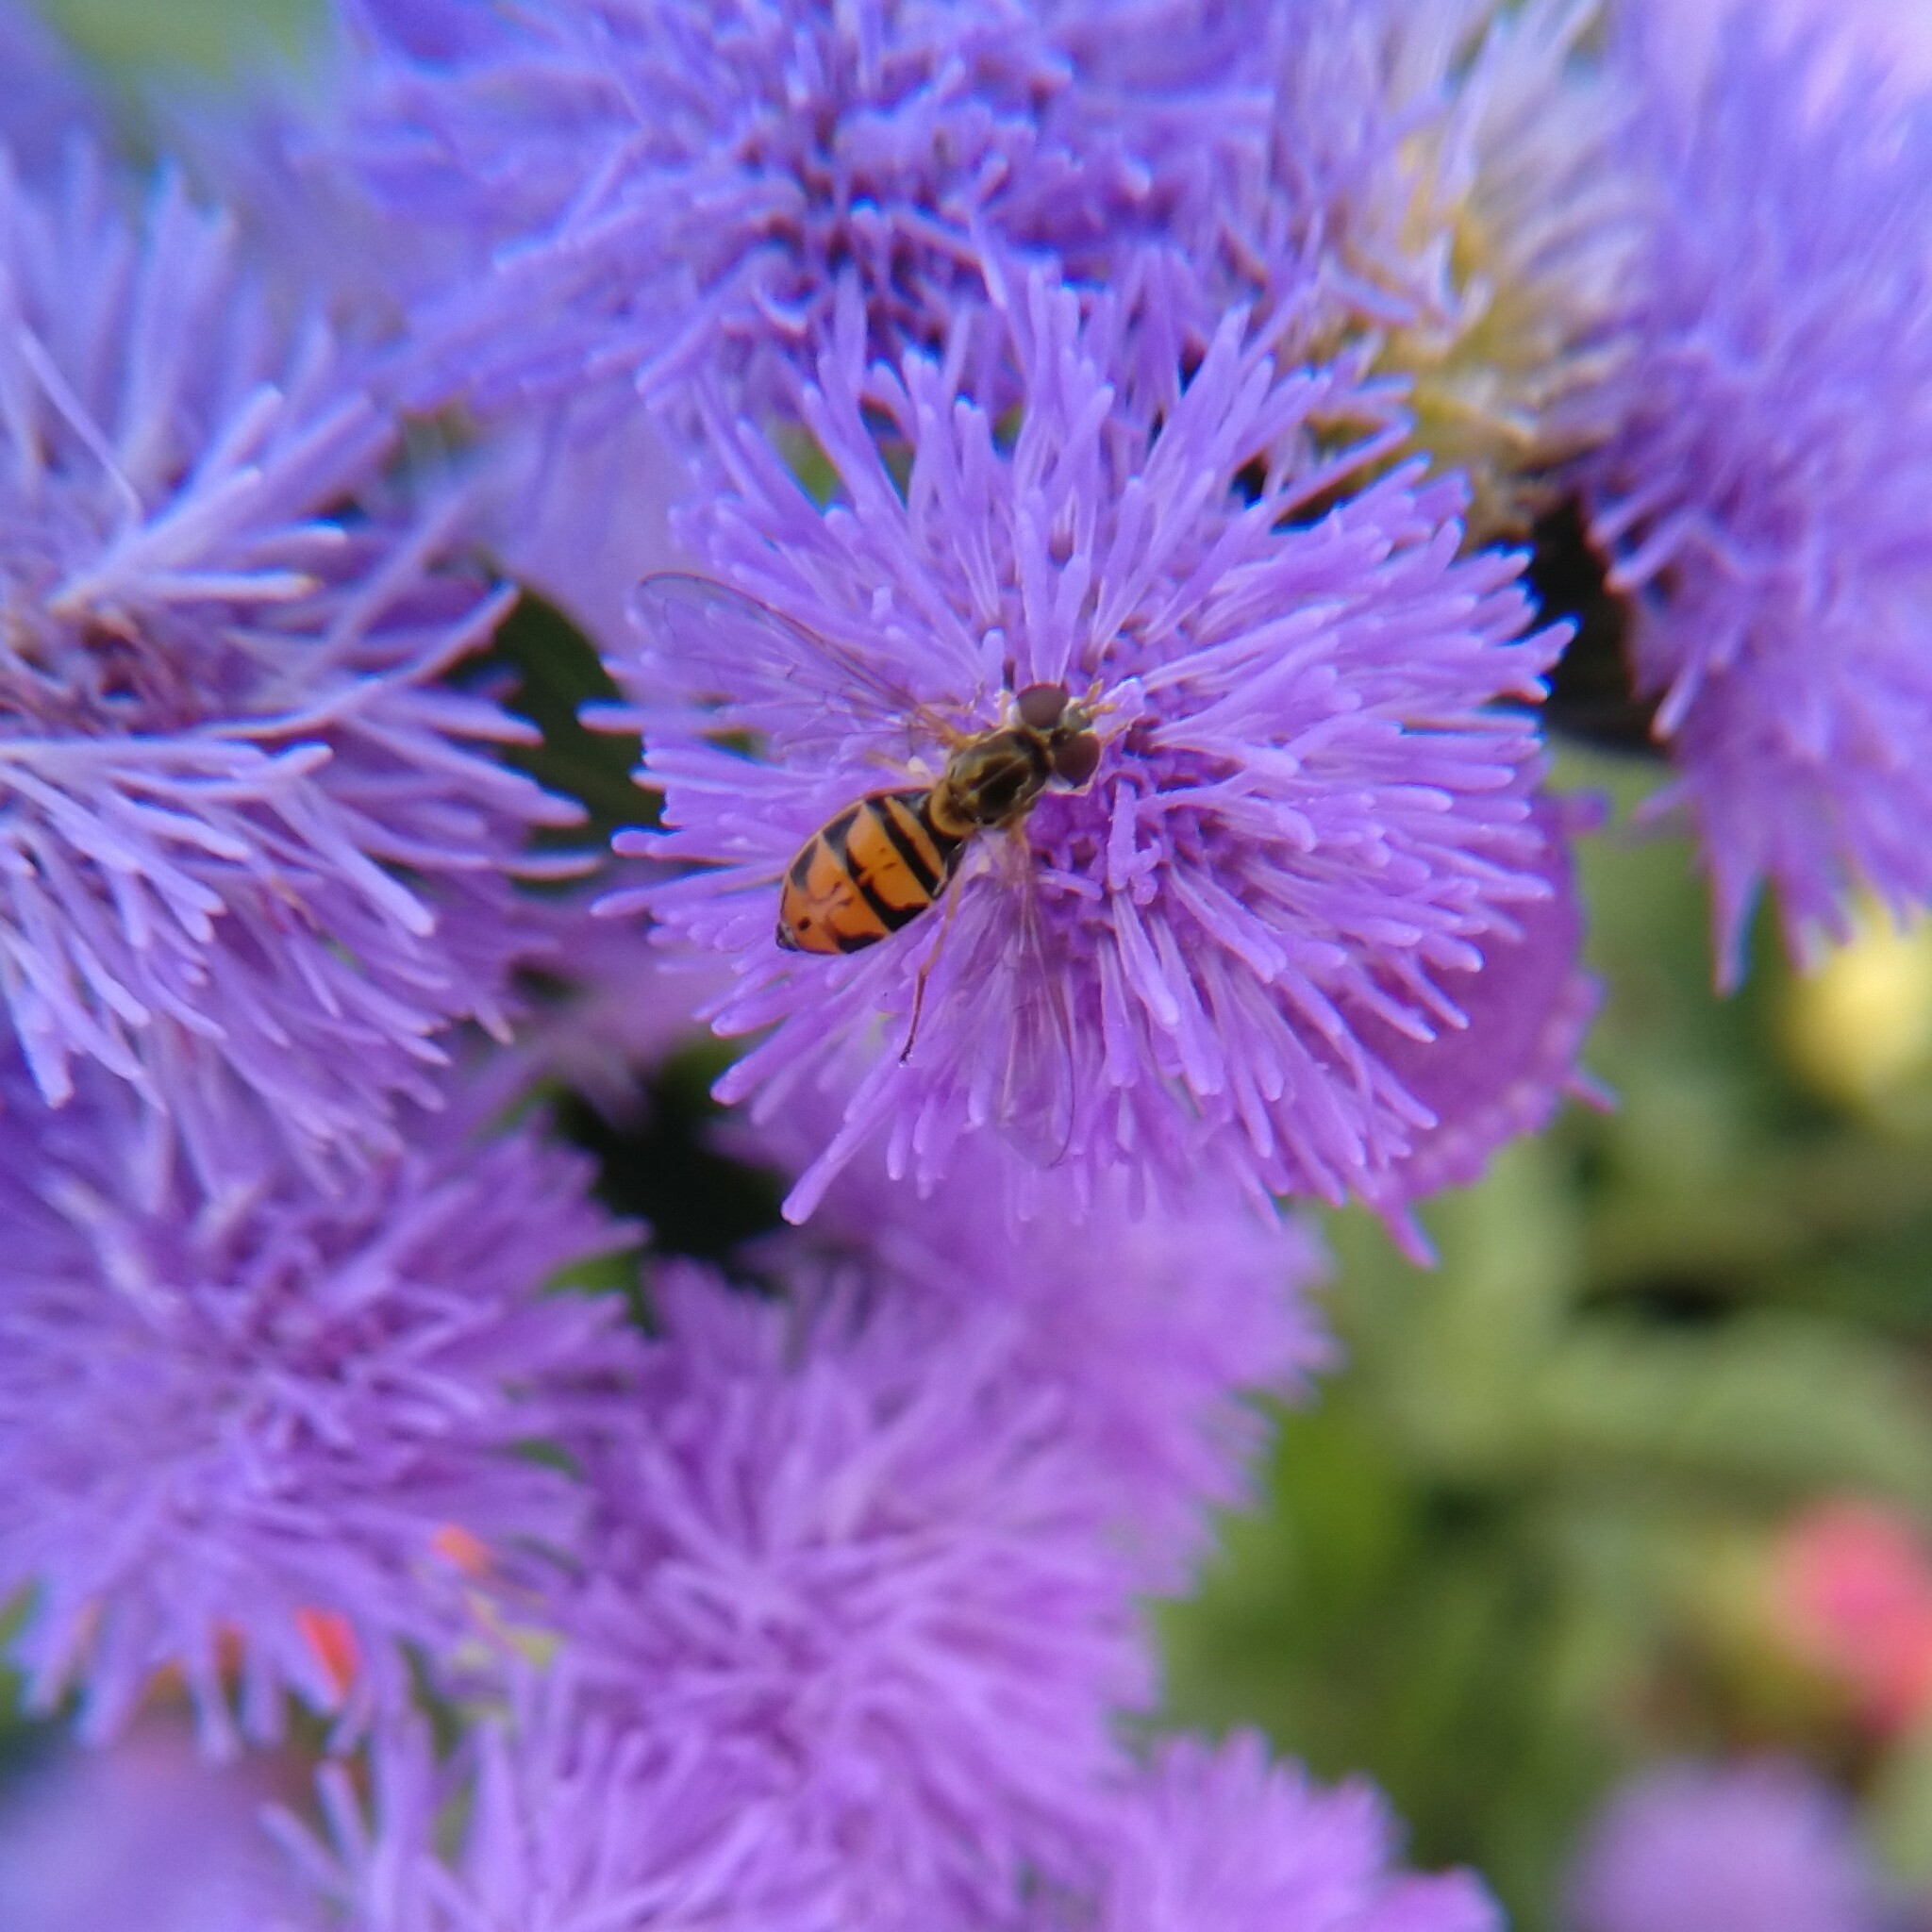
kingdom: Animalia
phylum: Arthropoda
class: Insecta
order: Diptera
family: Syrphidae
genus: Toxomerus
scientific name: Toxomerus marginatus
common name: Syrphid fly
